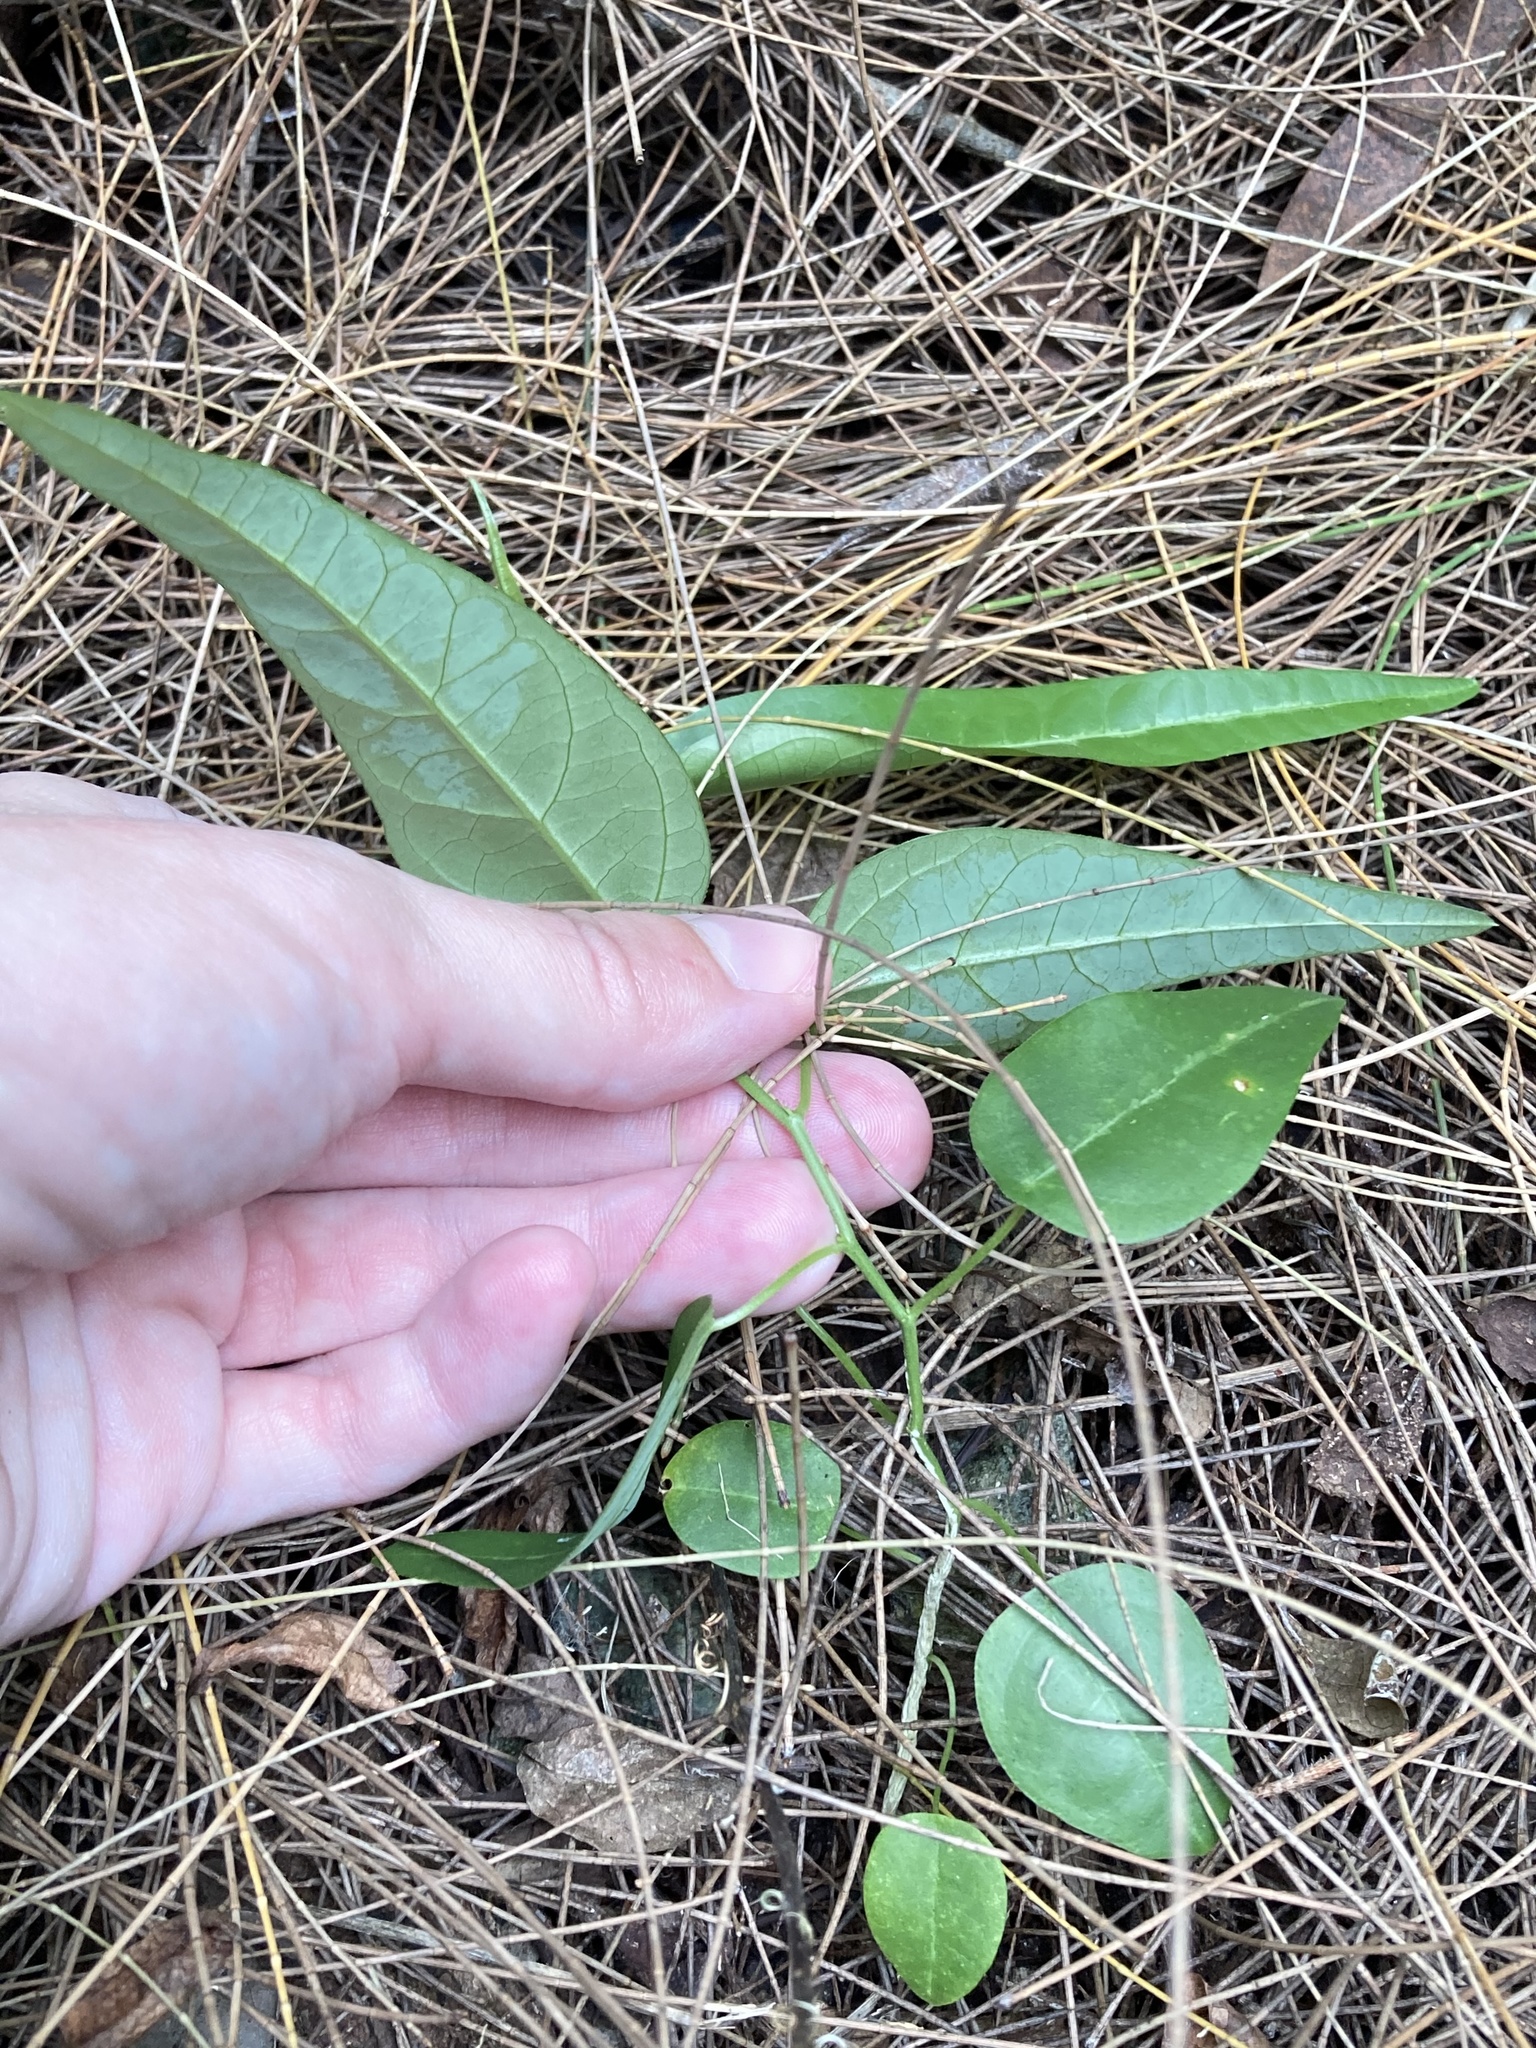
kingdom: Plantae
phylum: Tracheophyta
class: Magnoliopsida
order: Malpighiales
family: Passifloraceae
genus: Passiflora
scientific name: Passiflora pallida
